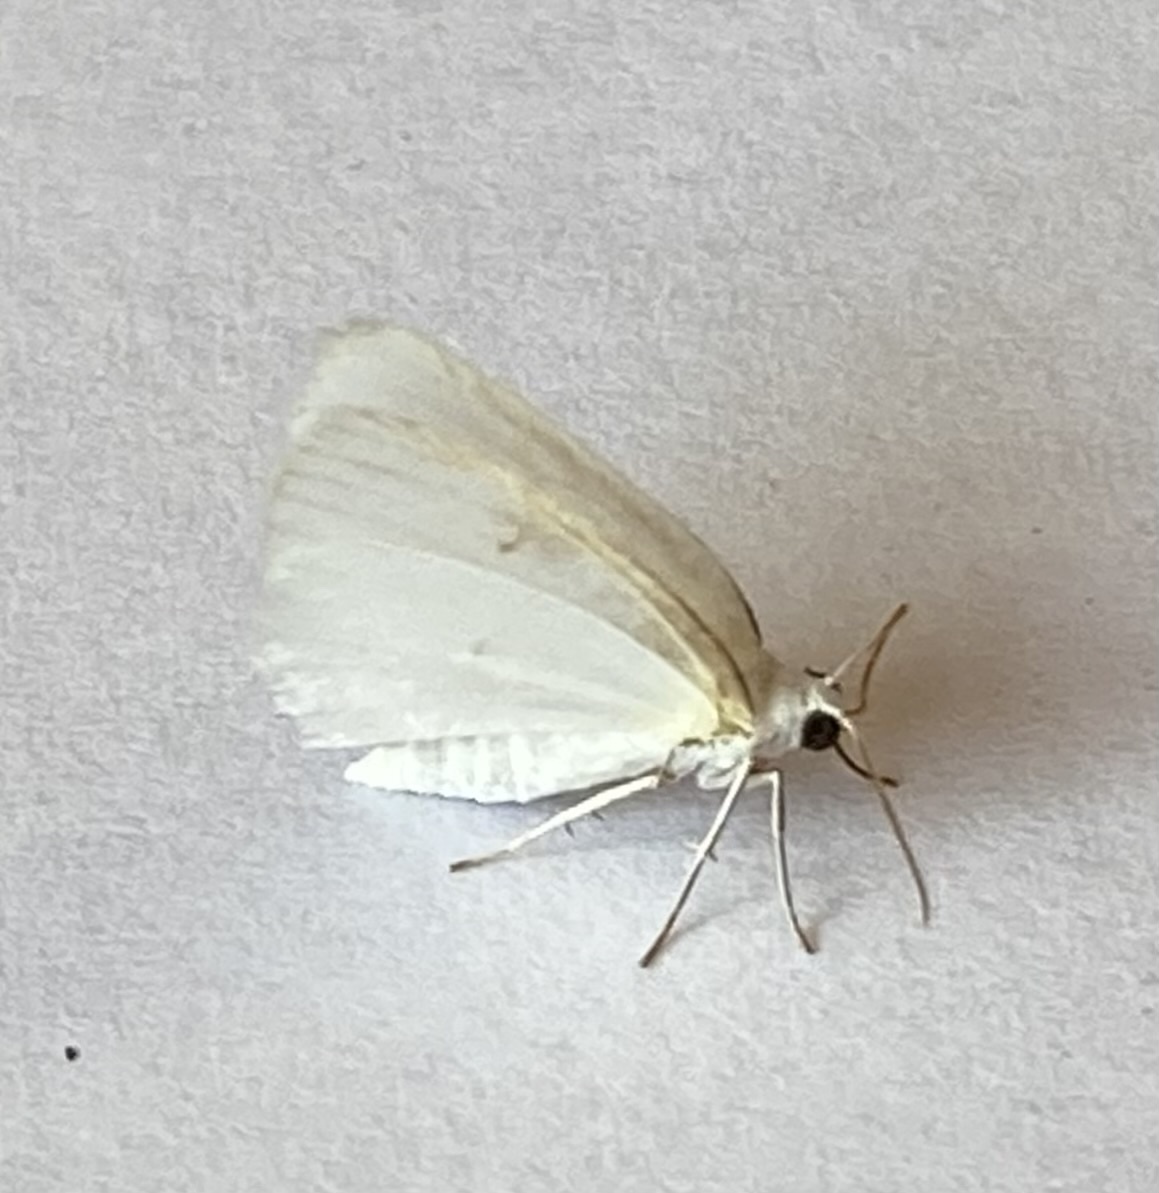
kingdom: Animalia
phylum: Arthropoda
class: Insecta
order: Lepidoptera
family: Geometridae
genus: Lomographa
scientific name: Lomographa vestaliata
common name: White spring moth
